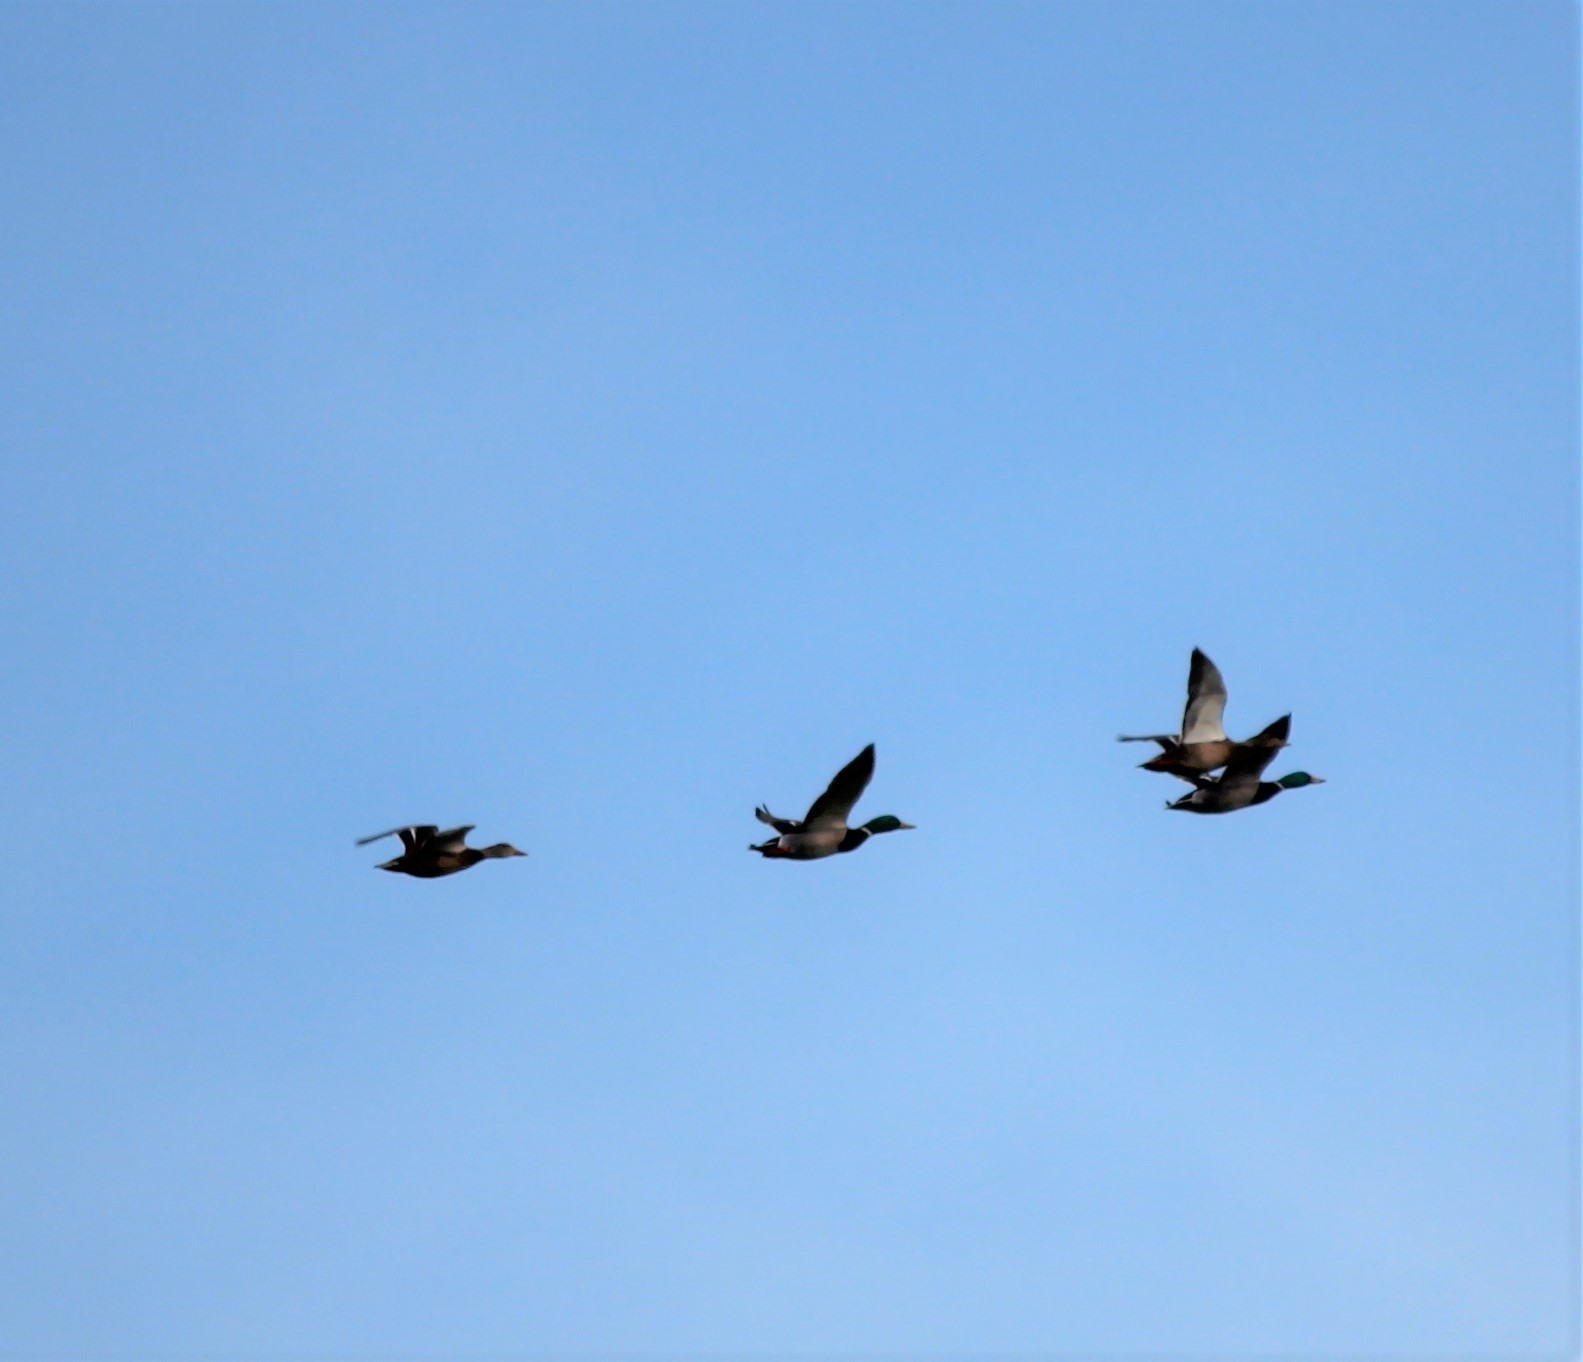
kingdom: Animalia
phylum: Chordata
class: Aves
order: Anseriformes
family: Anatidae
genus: Anas
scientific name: Anas platyrhynchos
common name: Mallard
